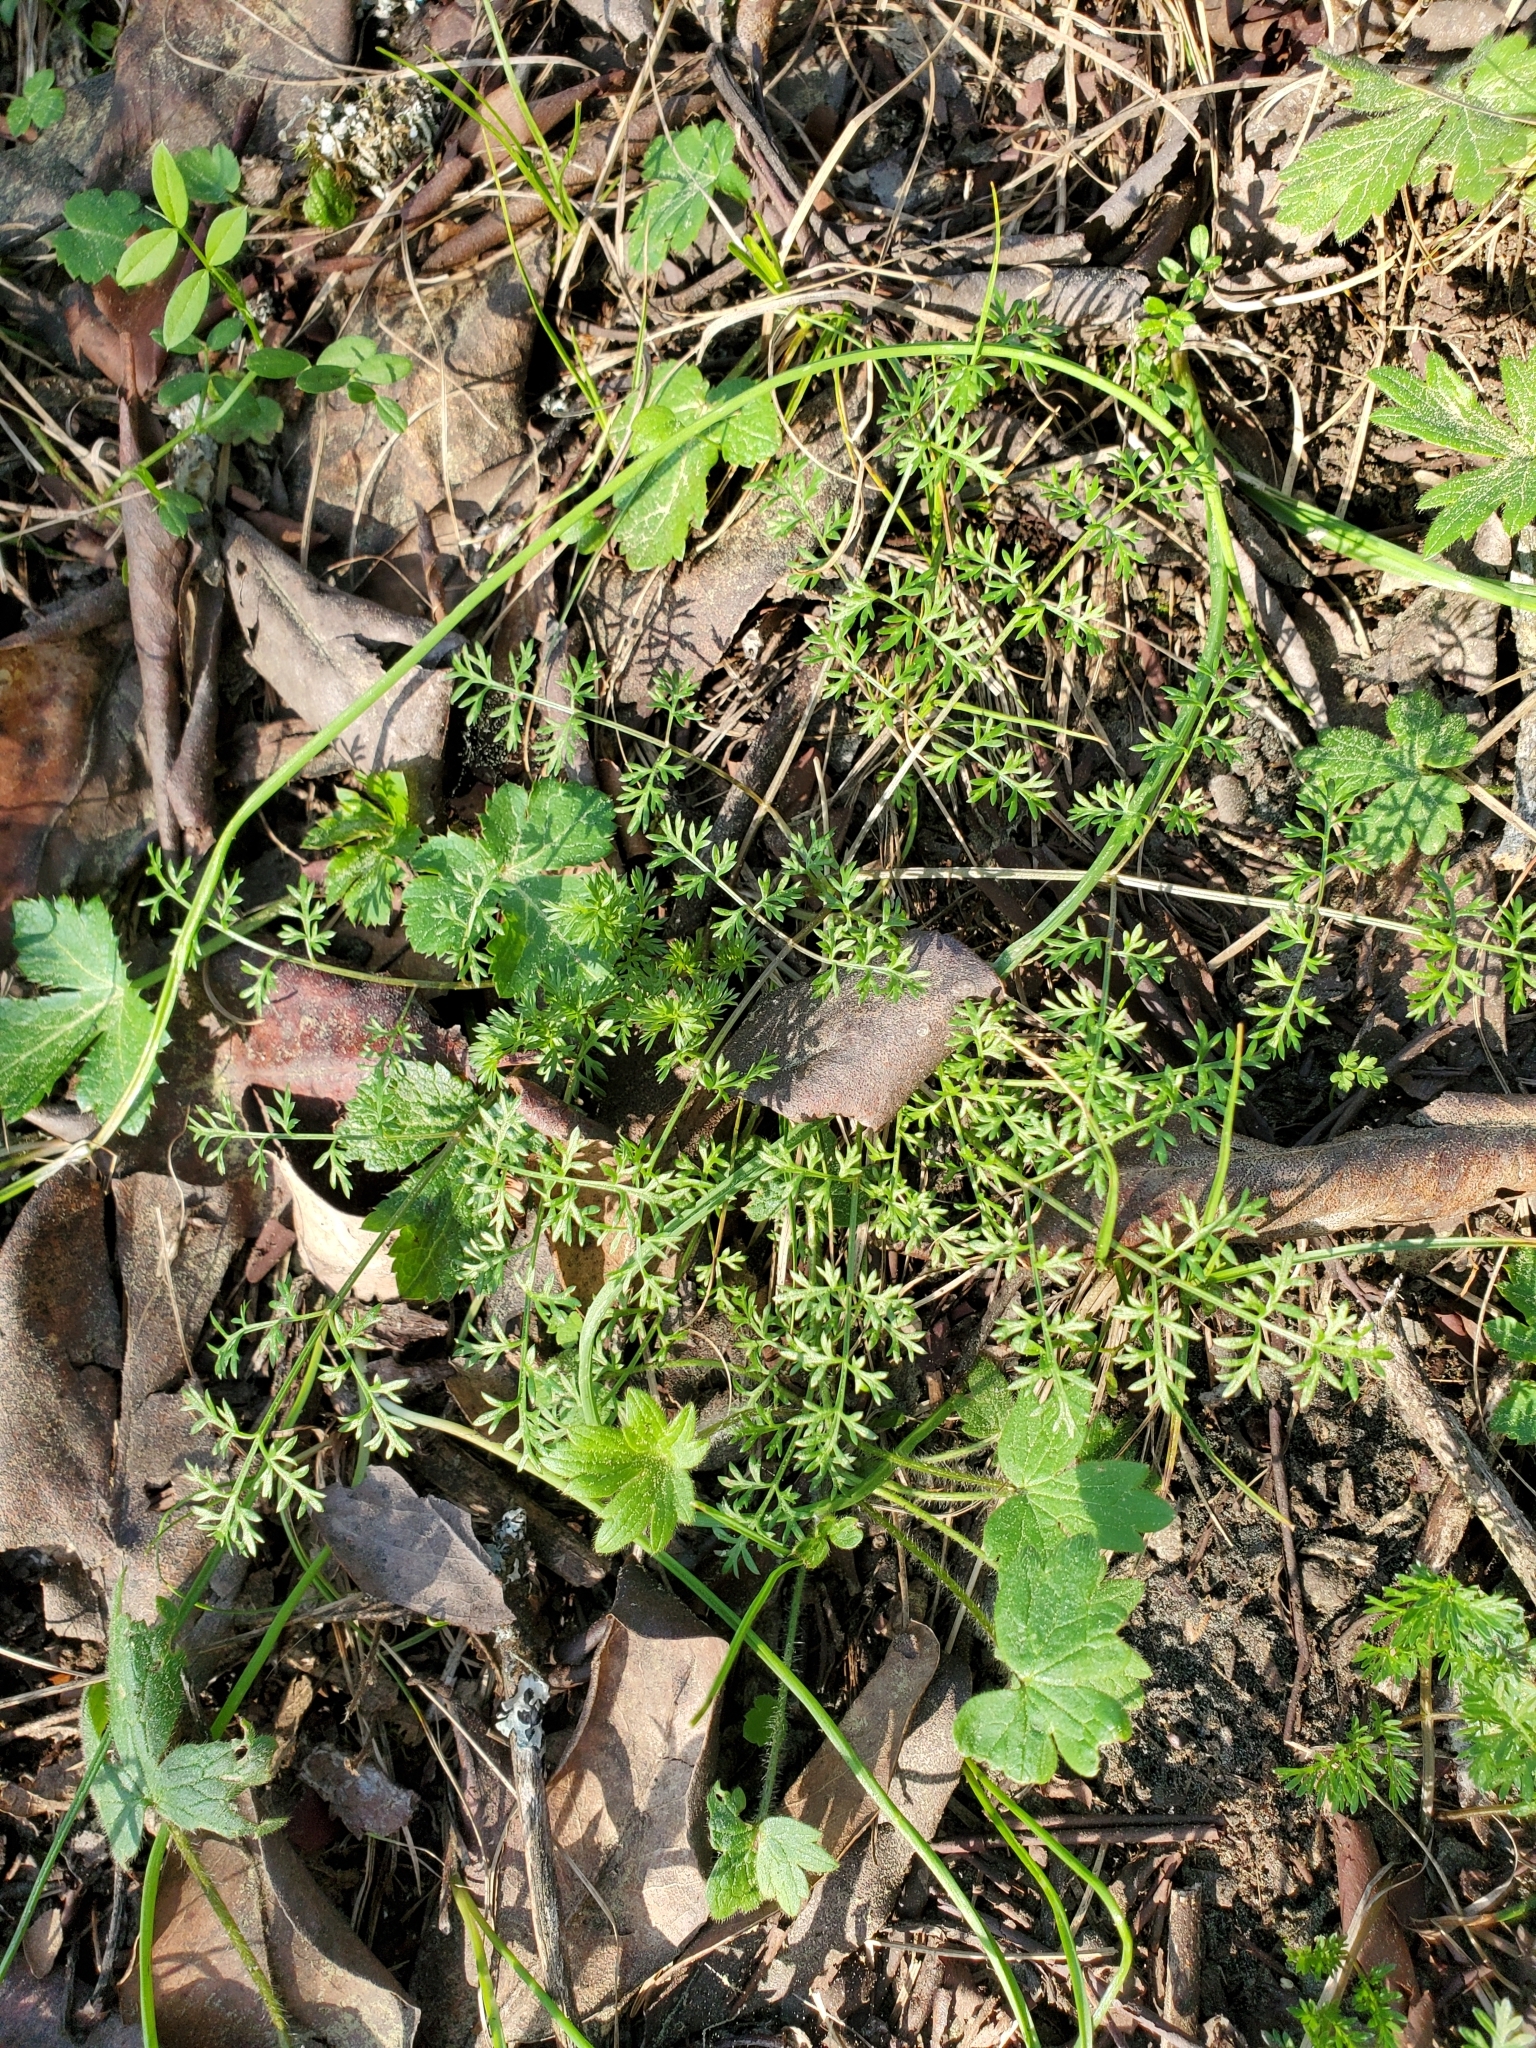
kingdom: Plantae
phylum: Tracheophyta
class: Magnoliopsida
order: Apiales
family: Apiaceae
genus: Lomatium
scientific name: Lomatium utriculatum
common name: Fine-leaf desert-parsley
